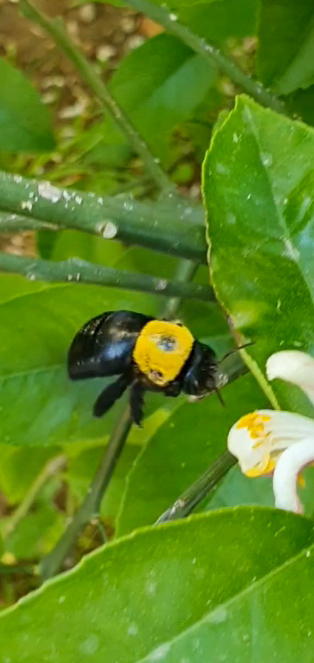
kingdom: Animalia
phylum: Arthropoda
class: Insecta
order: Hymenoptera
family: Apidae
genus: Xylocopa
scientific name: Xylocopa pubescens
